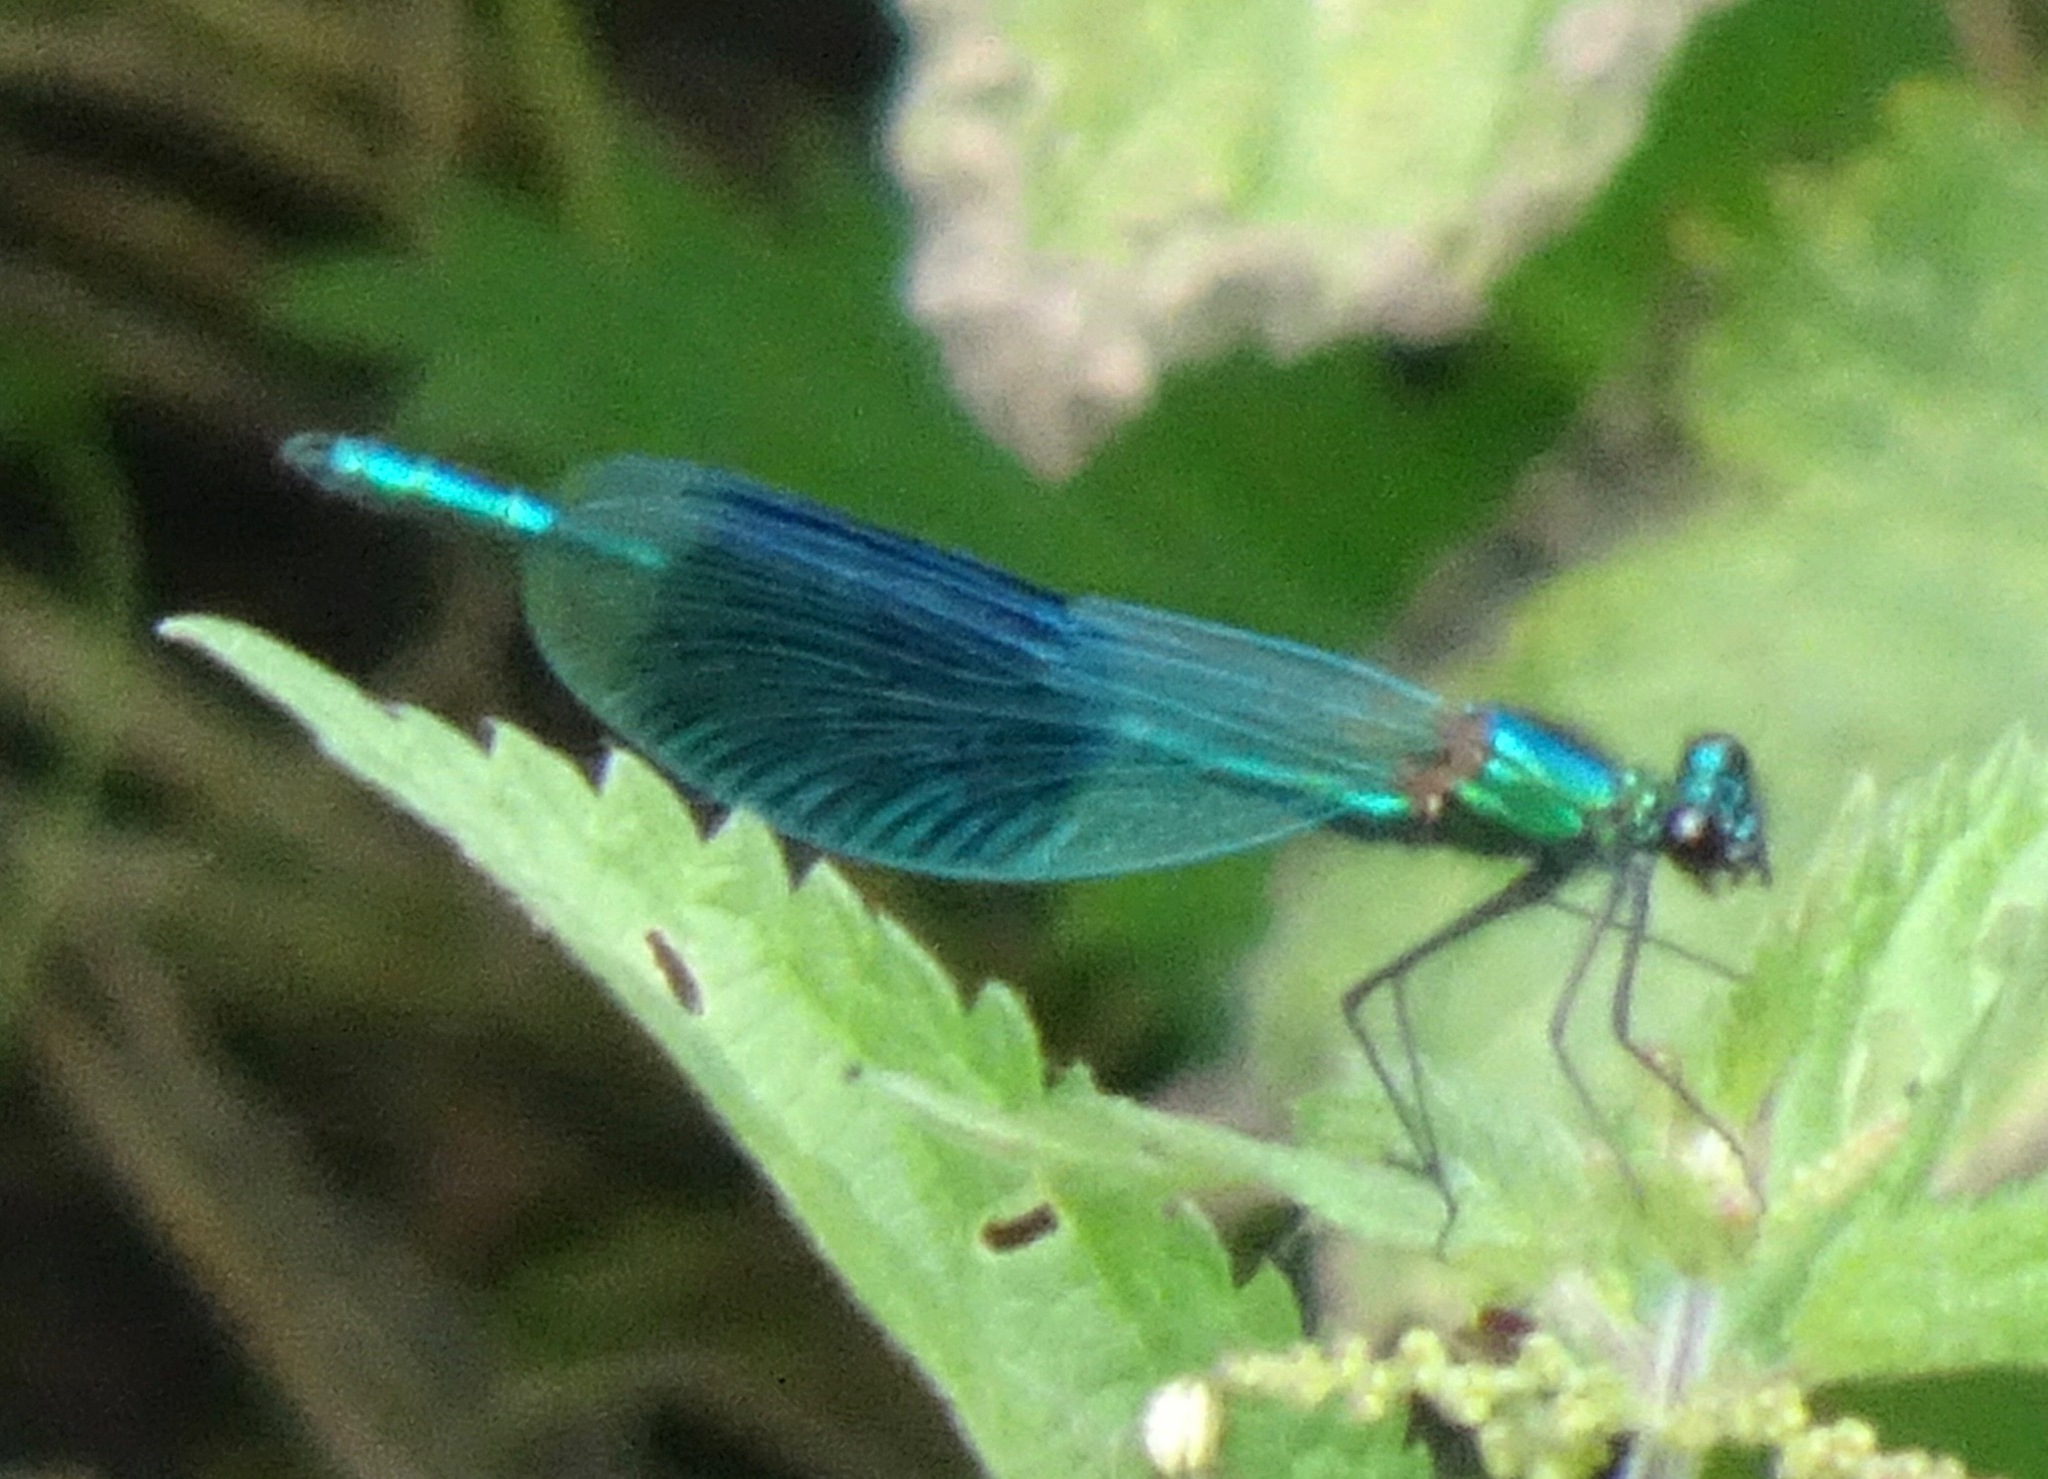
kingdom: Animalia
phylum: Arthropoda
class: Insecta
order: Odonata
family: Calopterygidae
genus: Calopteryx
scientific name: Calopteryx splendens
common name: Banded demoiselle
